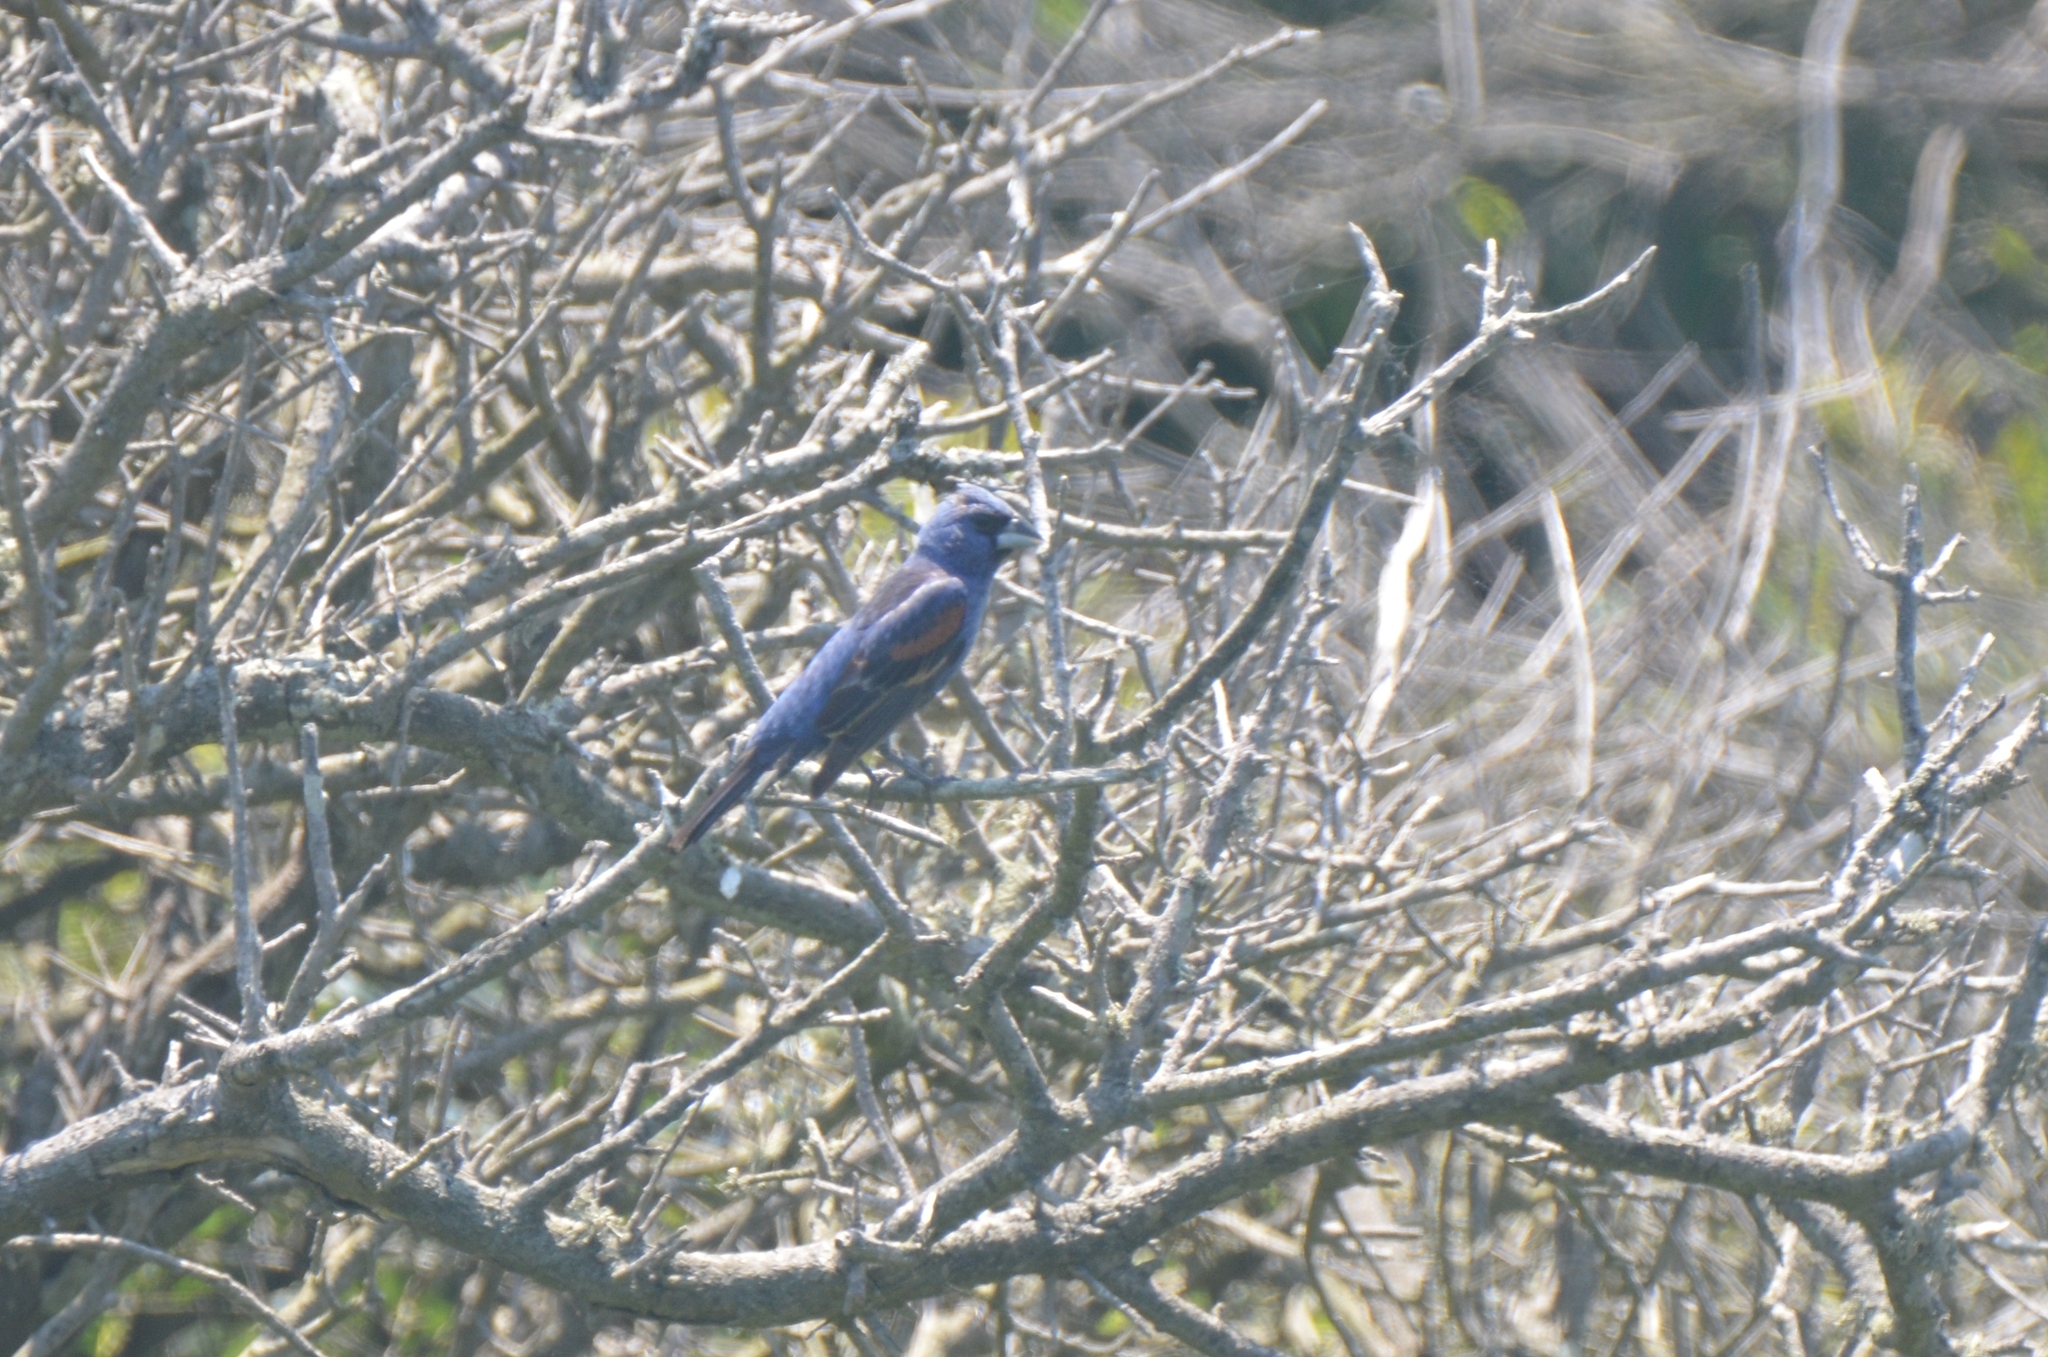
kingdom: Animalia
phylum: Chordata
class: Aves
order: Passeriformes
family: Cardinalidae
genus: Passerina
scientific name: Passerina caerulea
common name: Blue grosbeak
